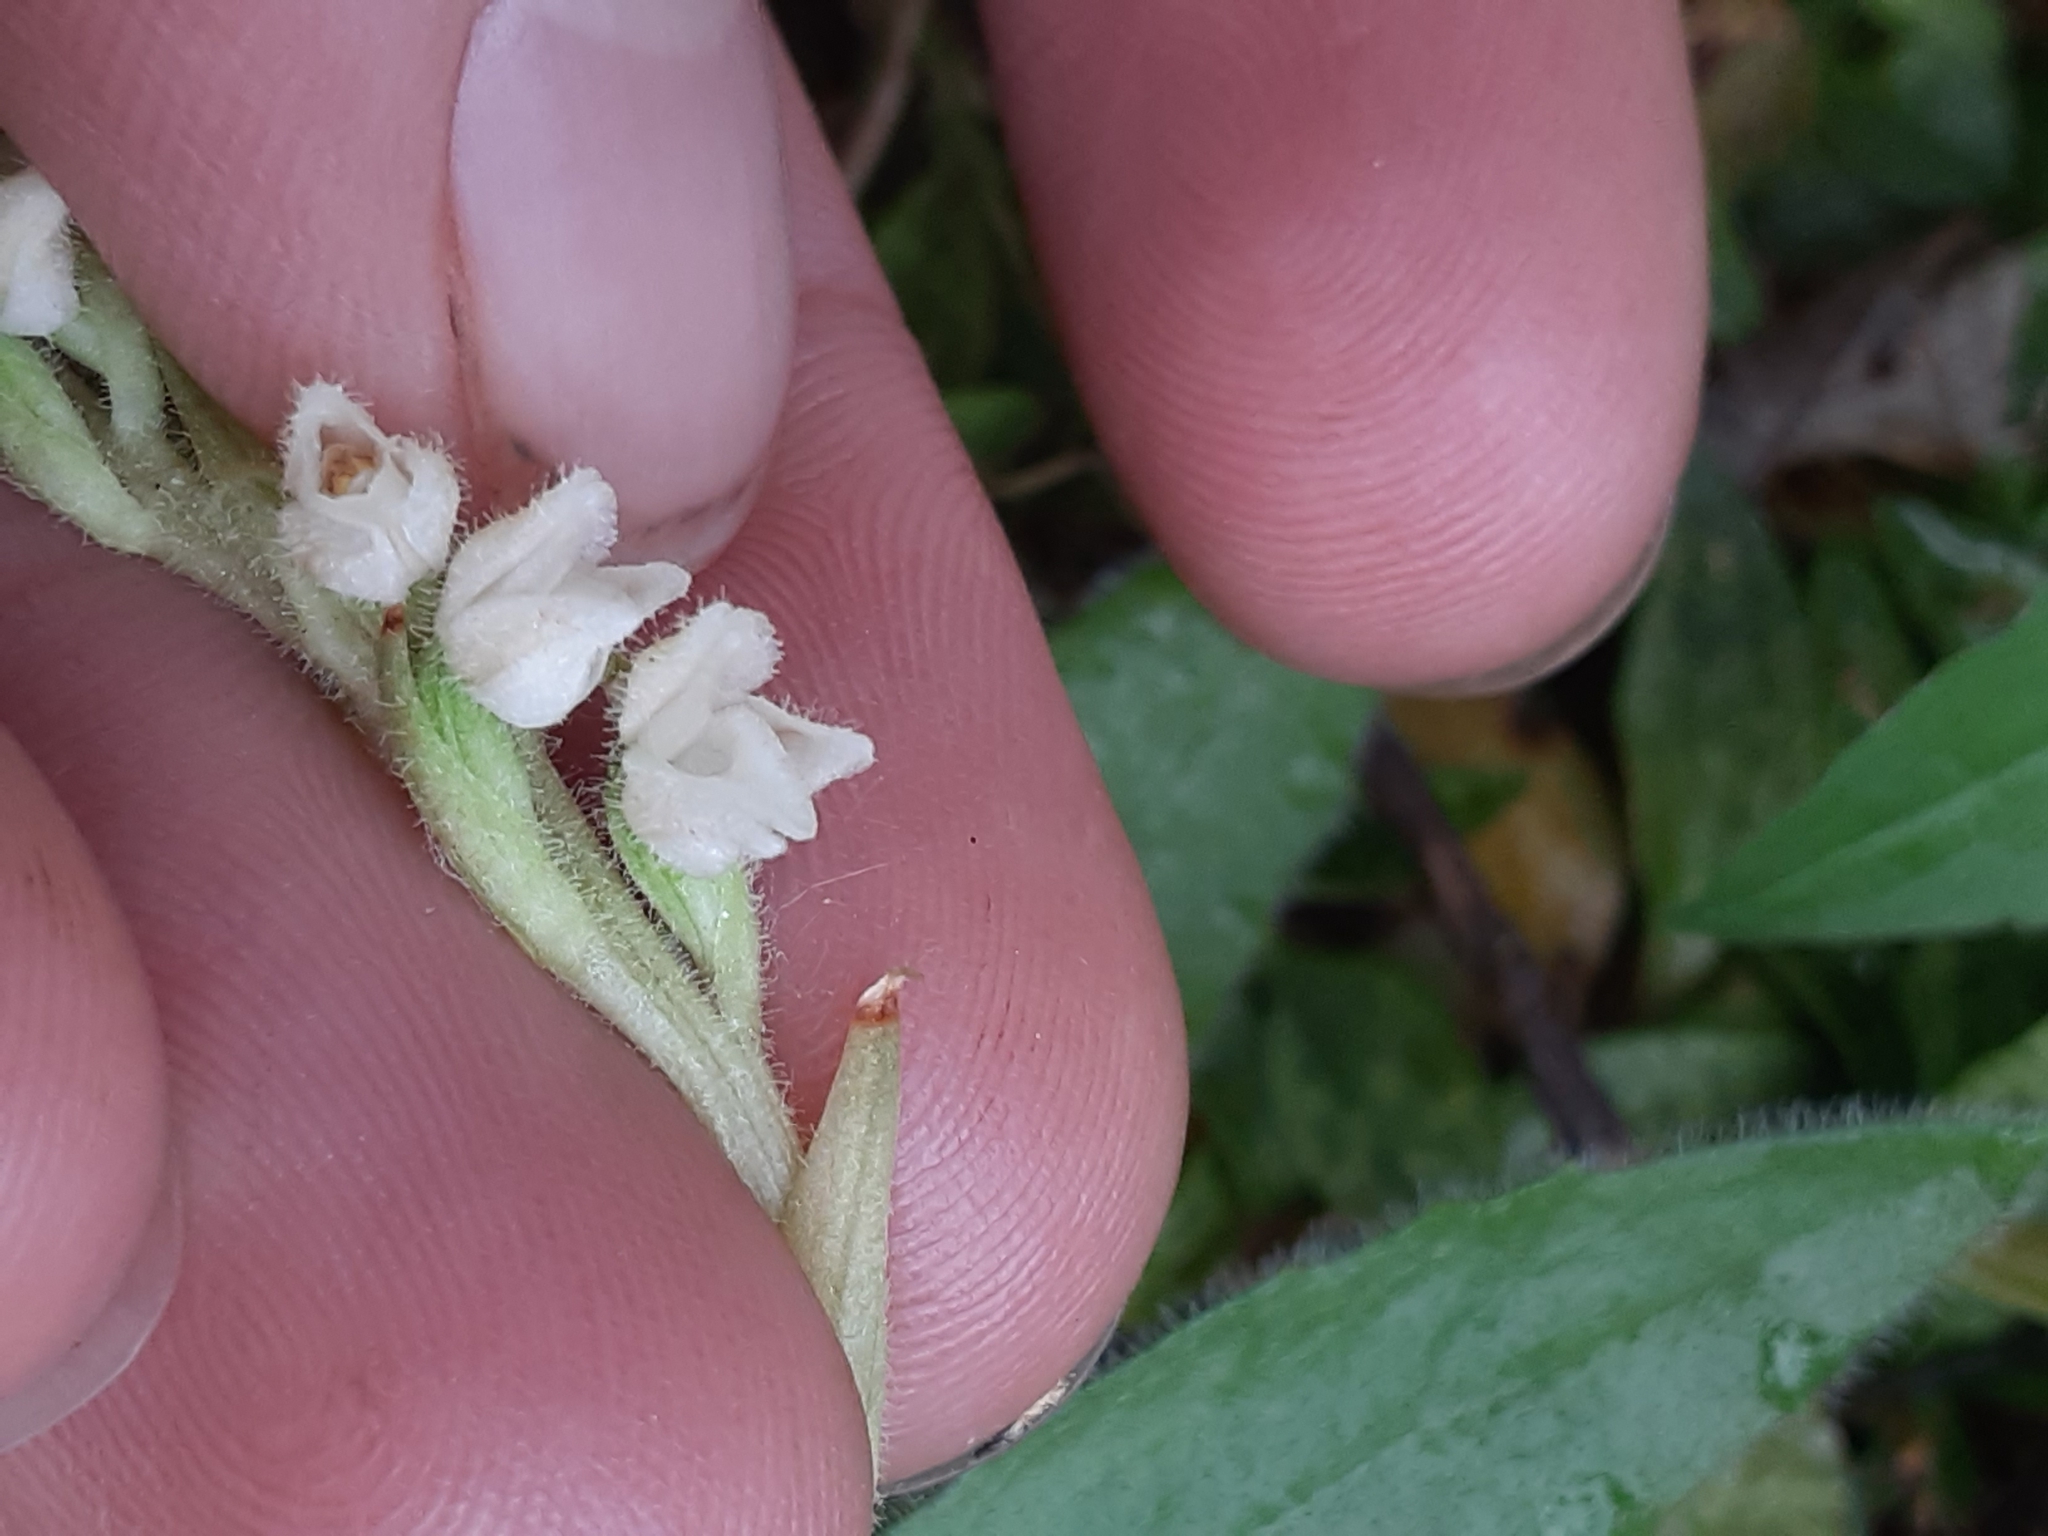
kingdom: Plantae
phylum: Tracheophyta
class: Liliopsida
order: Asparagales
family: Orchidaceae
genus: Goodyera
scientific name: Goodyera repens
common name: Creeping lady's-tresses
